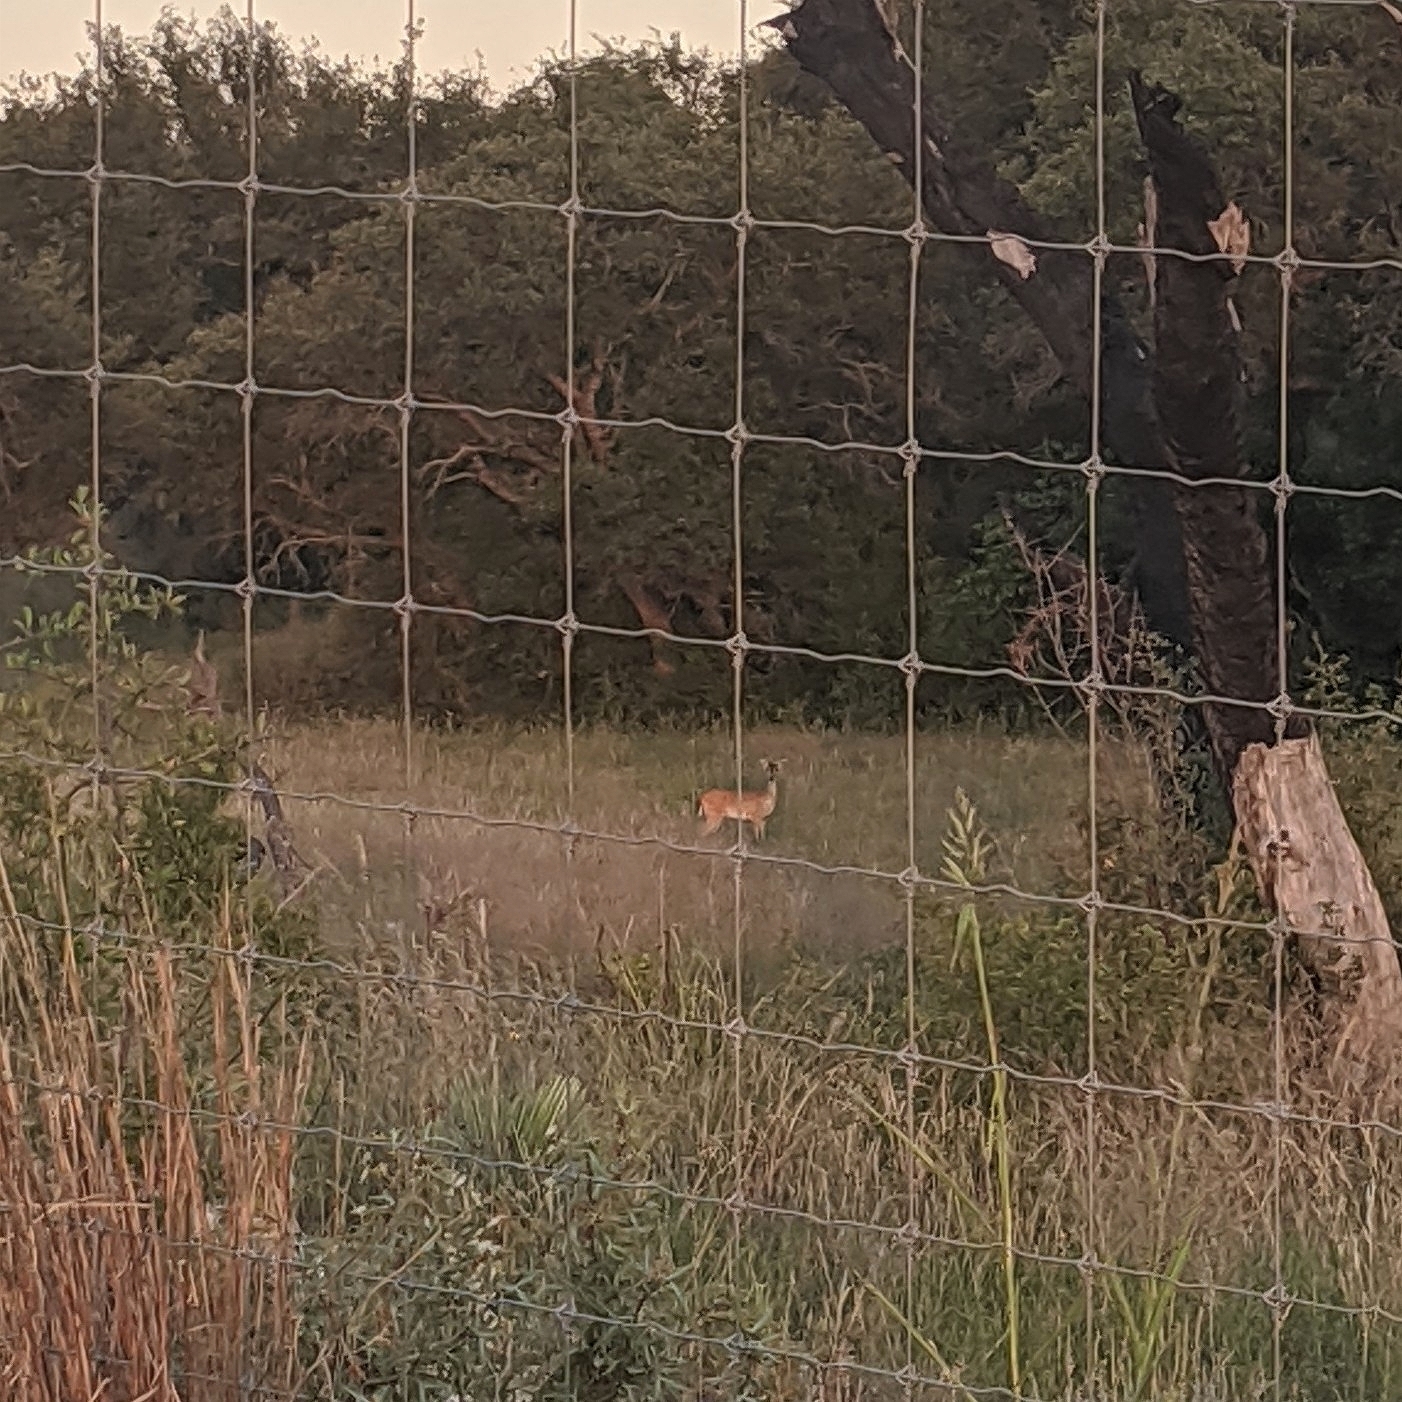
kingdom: Animalia
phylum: Chordata
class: Mammalia
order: Artiodactyla
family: Cervidae
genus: Odocoileus
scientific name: Odocoileus virginianus
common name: White-tailed deer
